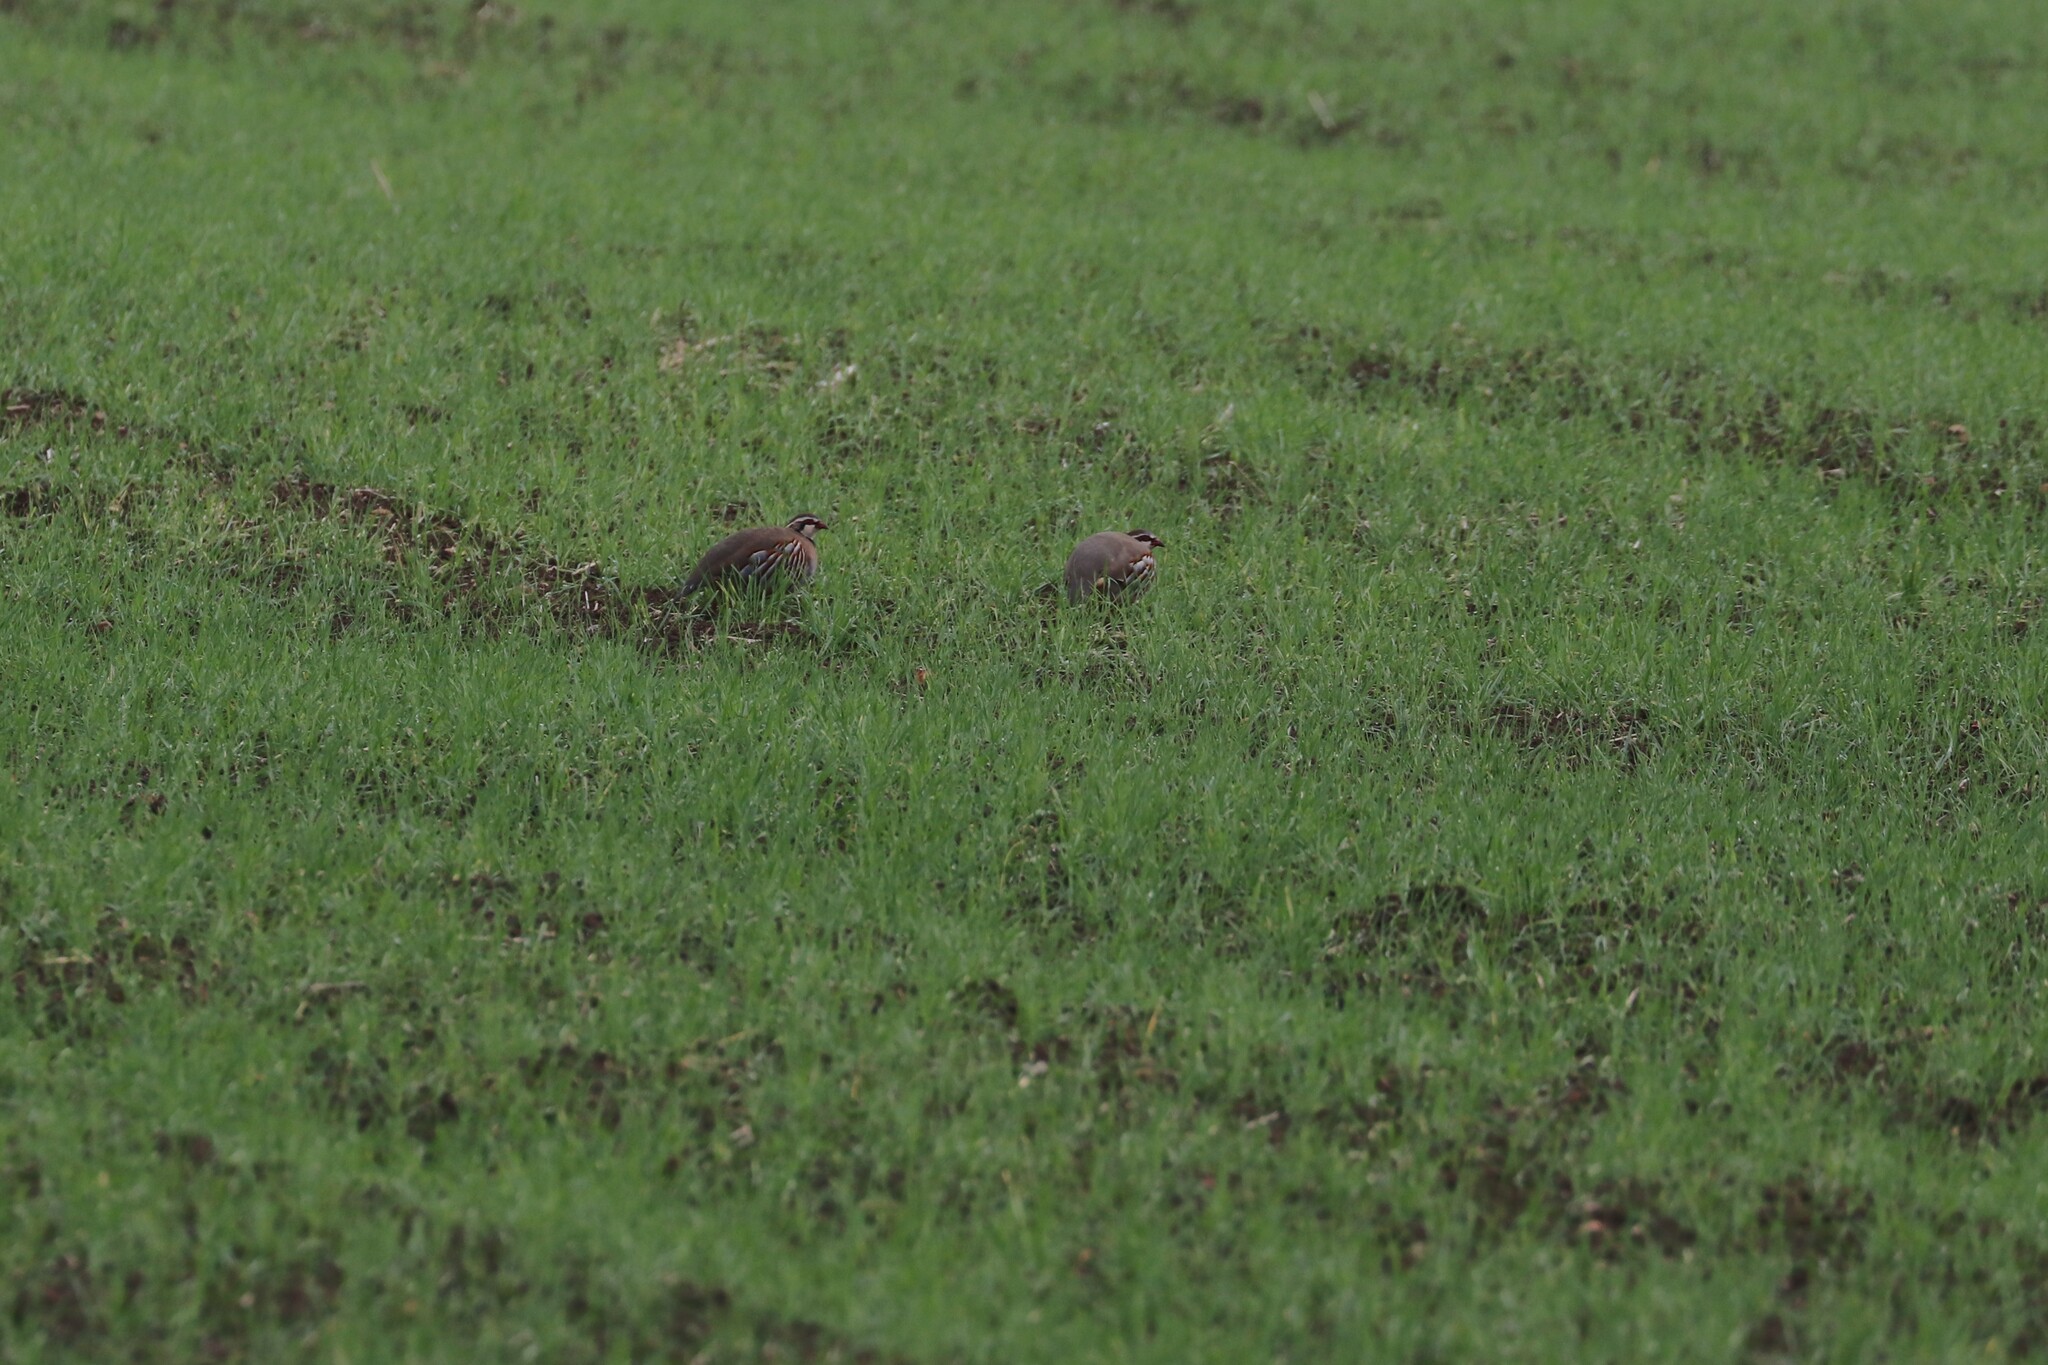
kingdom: Animalia
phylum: Chordata
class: Aves
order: Galliformes
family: Phasianidae
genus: Alectoris
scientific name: Alectoris rufa
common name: Red-legged partridge
